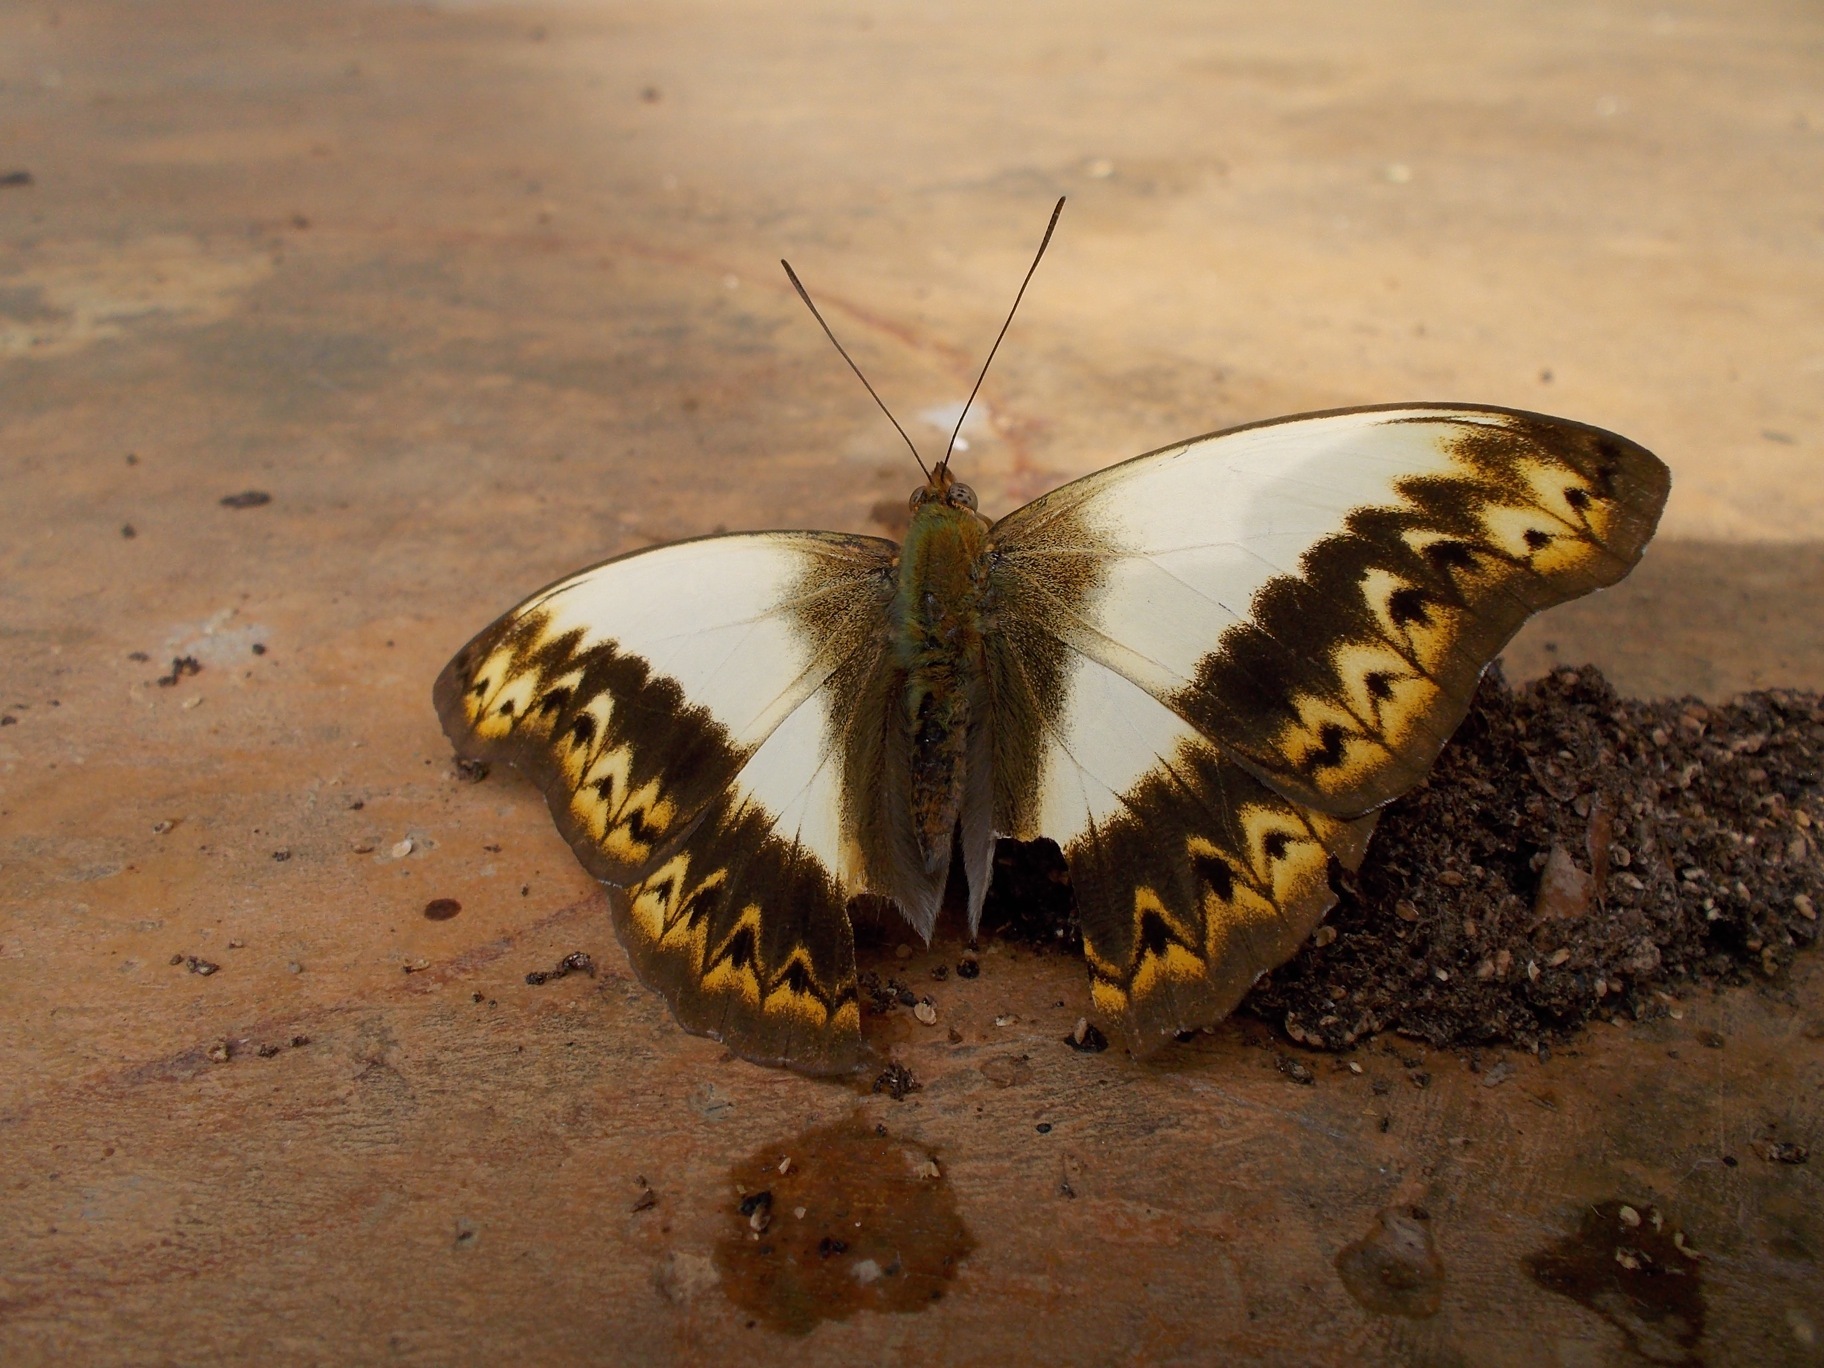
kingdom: Animalia
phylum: Arthropoda
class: Insecta
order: Lepidoptera
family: Nymphalidae
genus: Cymothoe
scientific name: Cymothoe herminia
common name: Herminia glider
